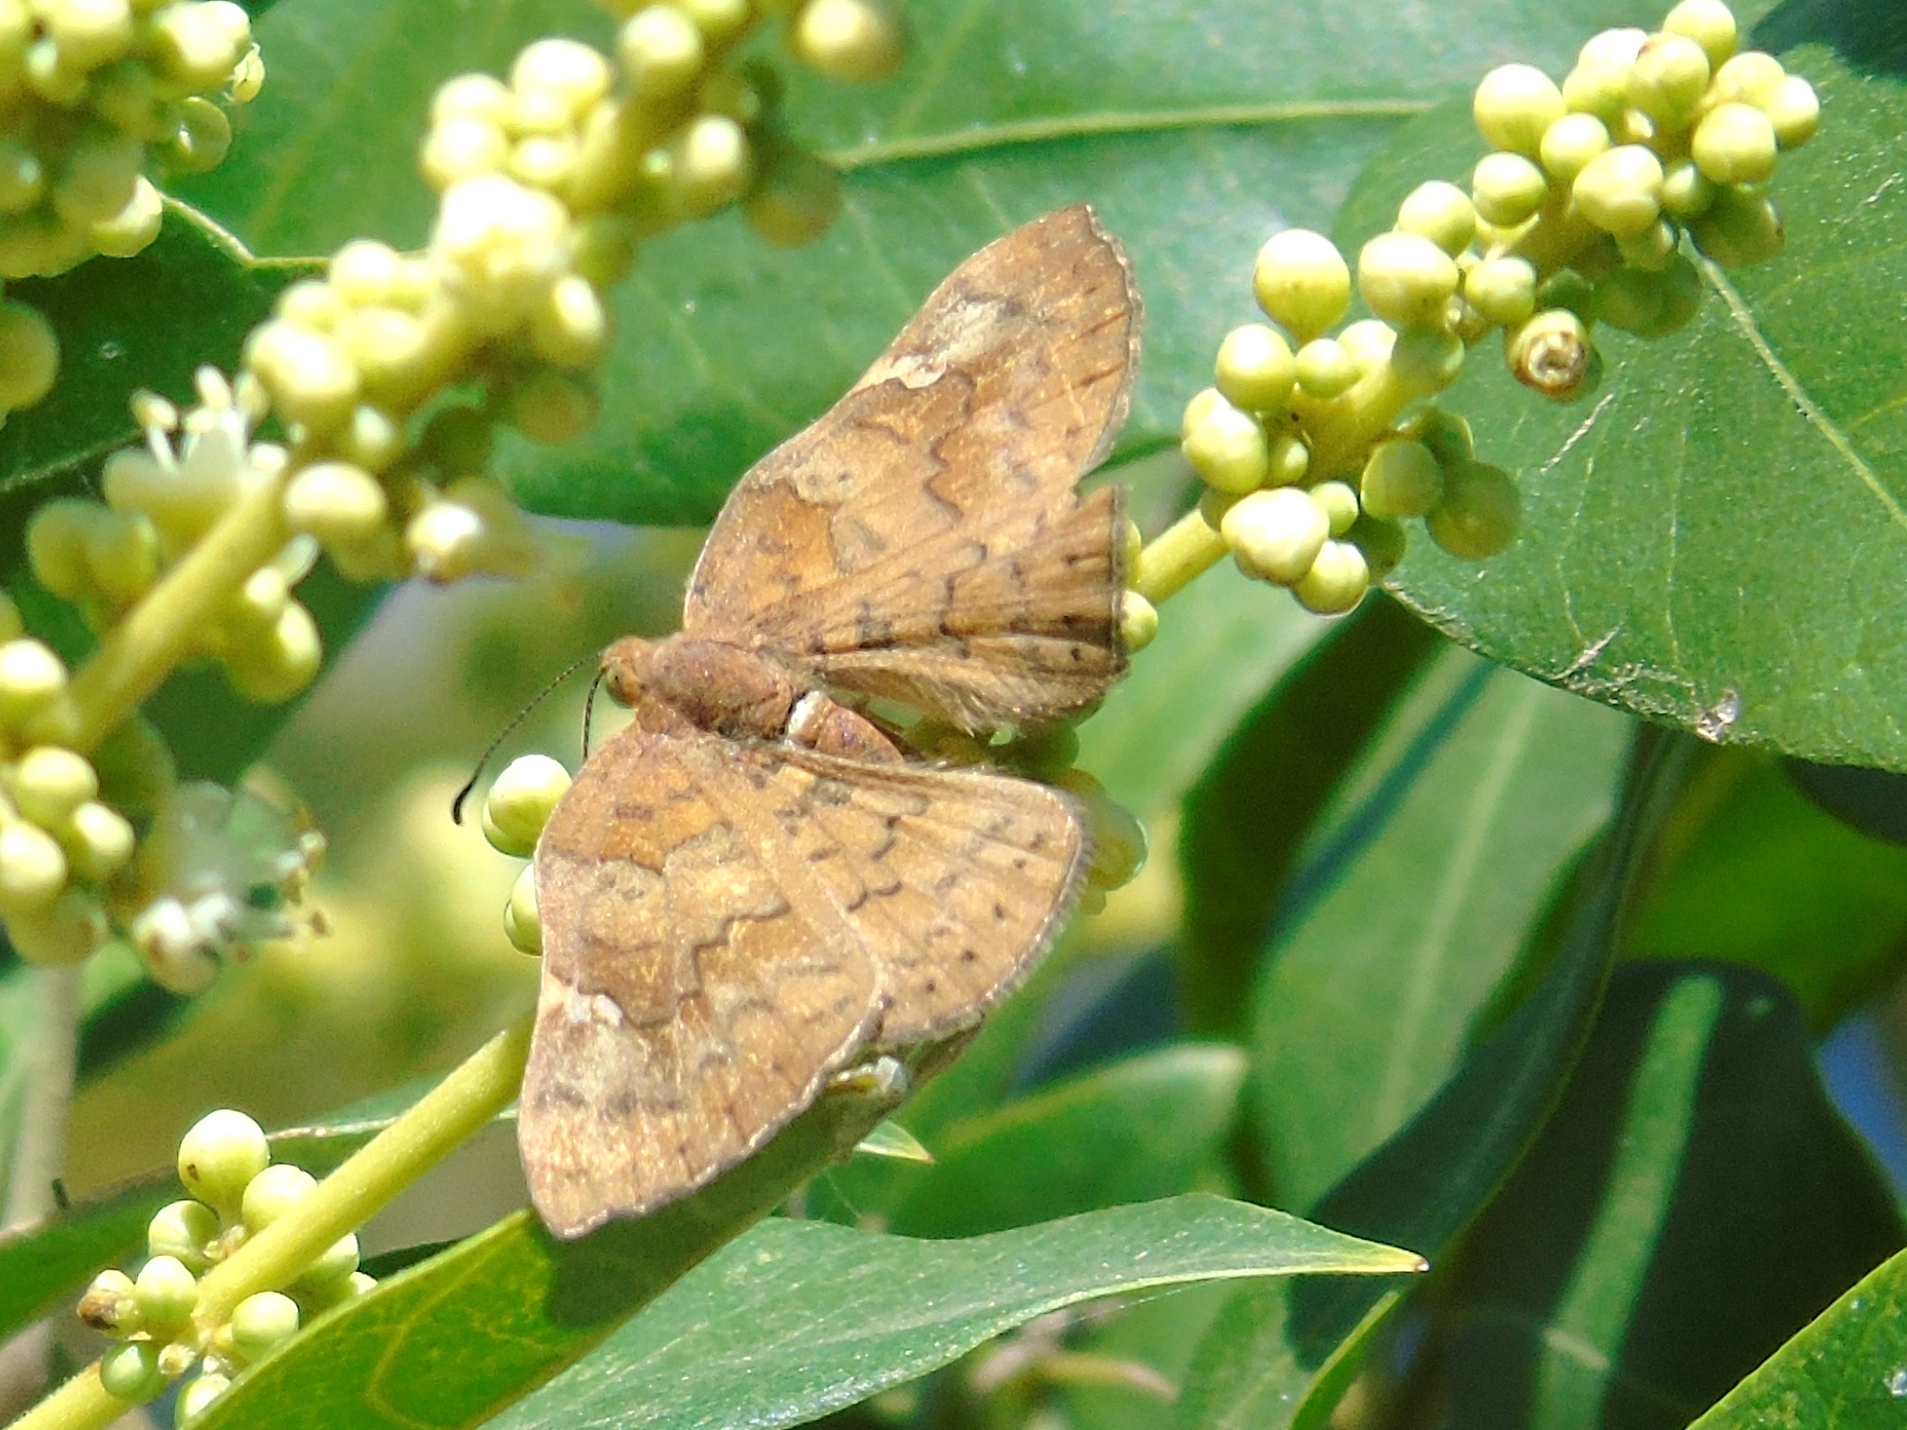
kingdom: Animalia
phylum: Arthropoda
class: Insecta
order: Lepidoptera
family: Riodinidae
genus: Curvie
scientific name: Curvie emesia
